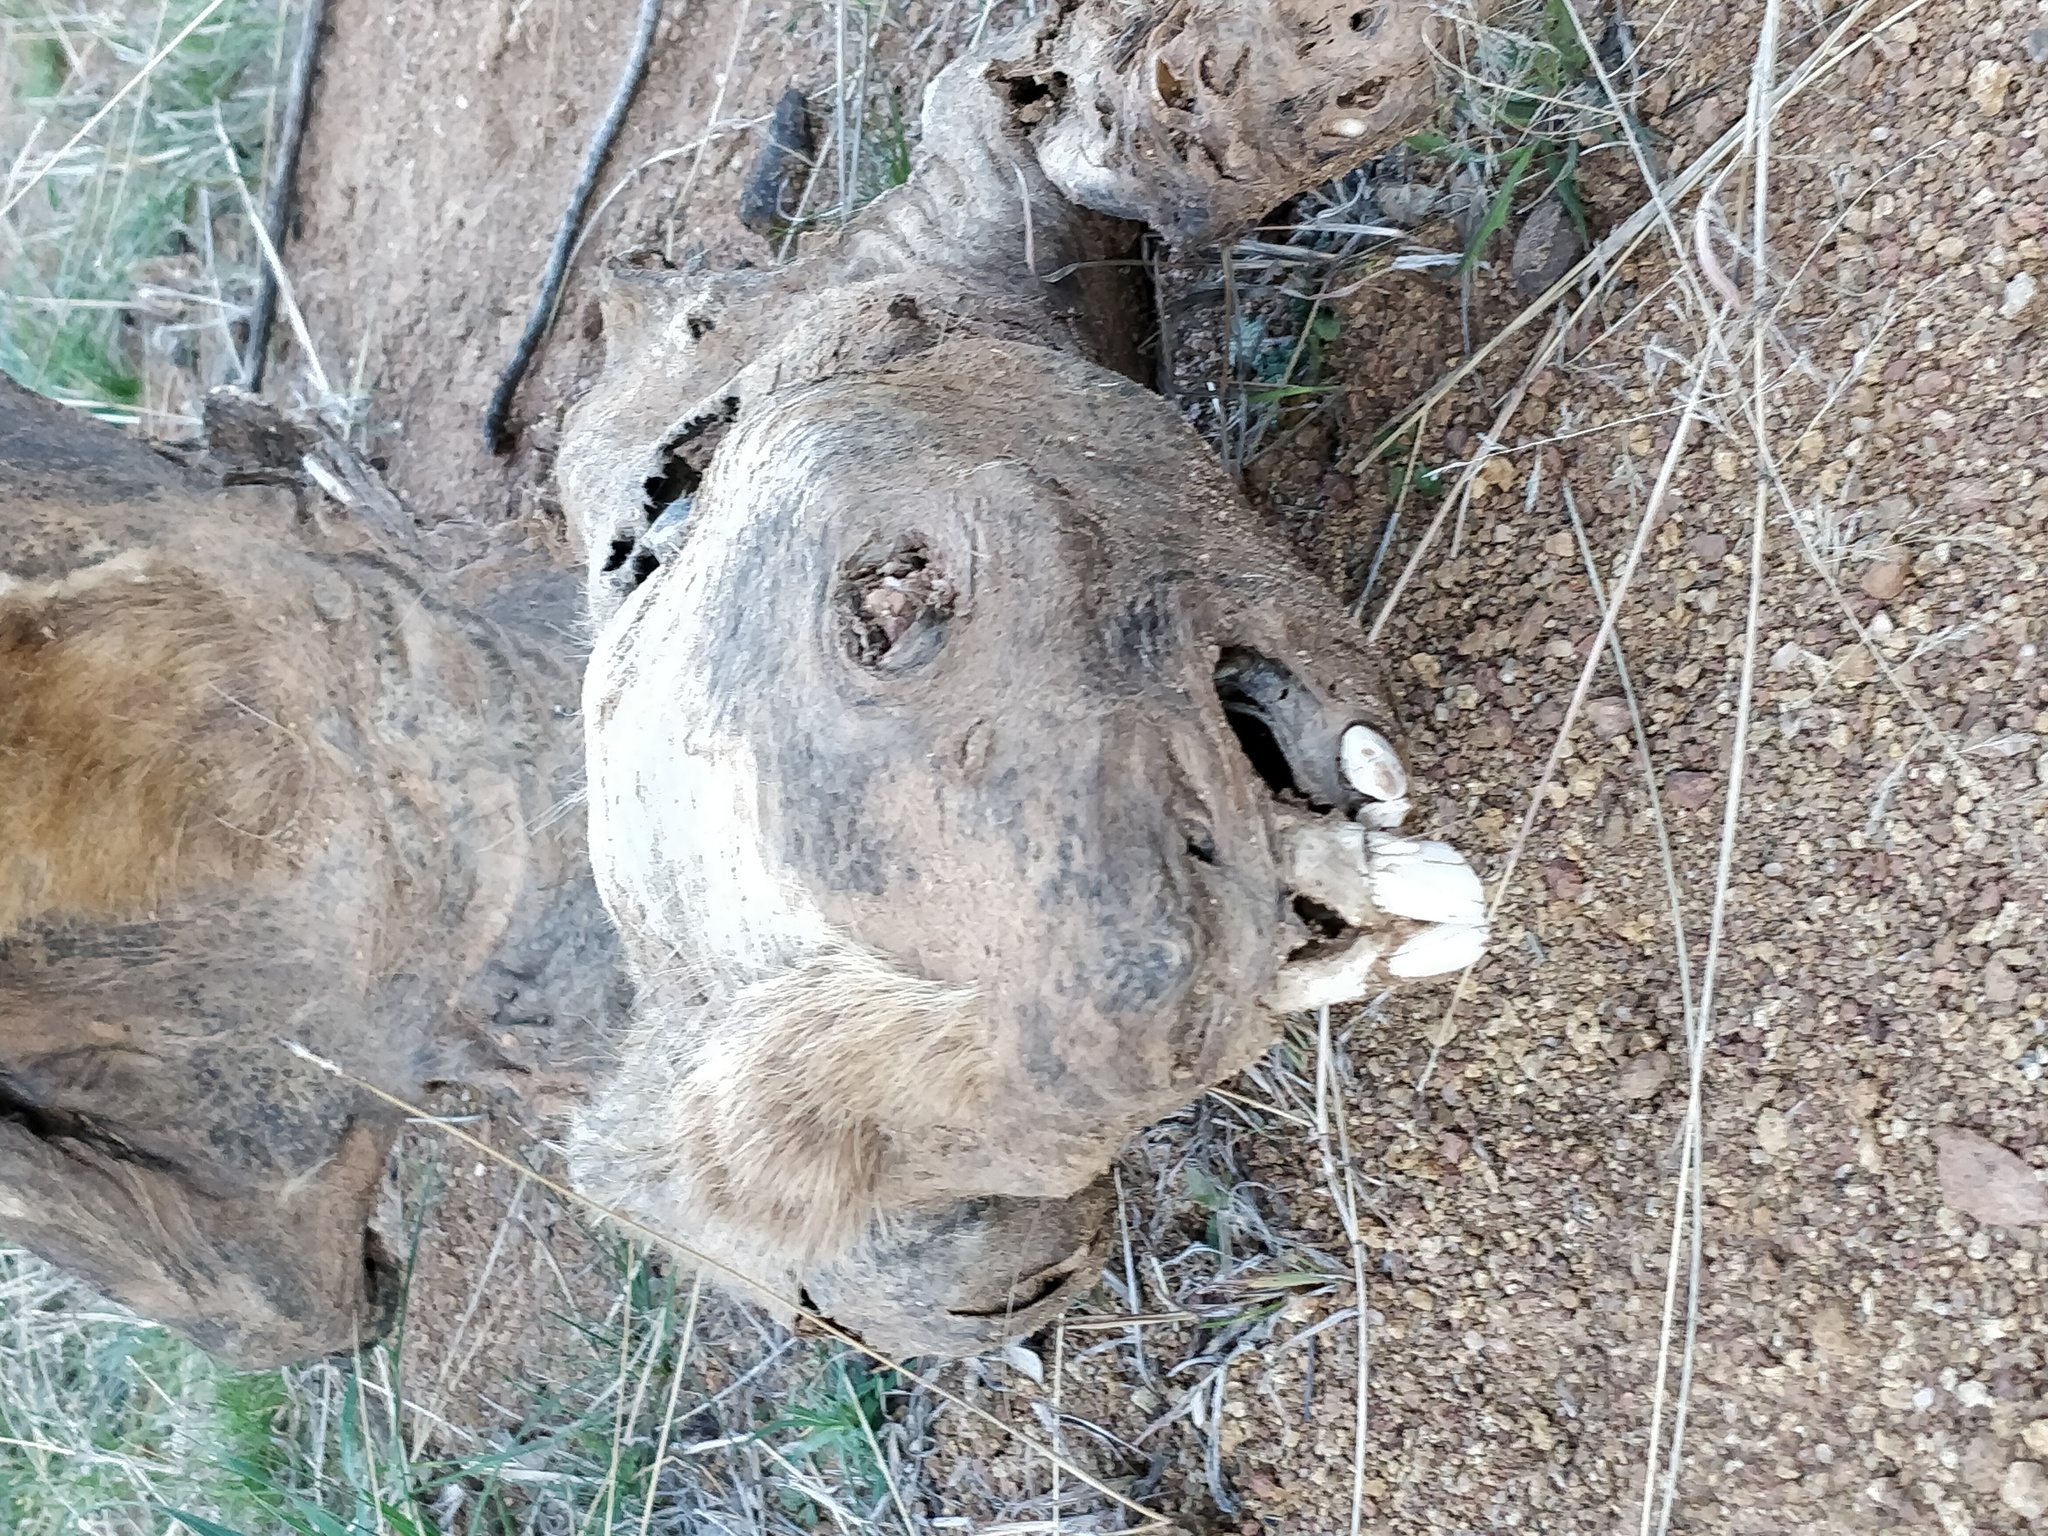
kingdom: Animalia
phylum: Chordata
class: Mammalia
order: Diprotodontia
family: Vombatidae
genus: Vombatus
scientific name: Vombatus ursinus
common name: Common wombat
